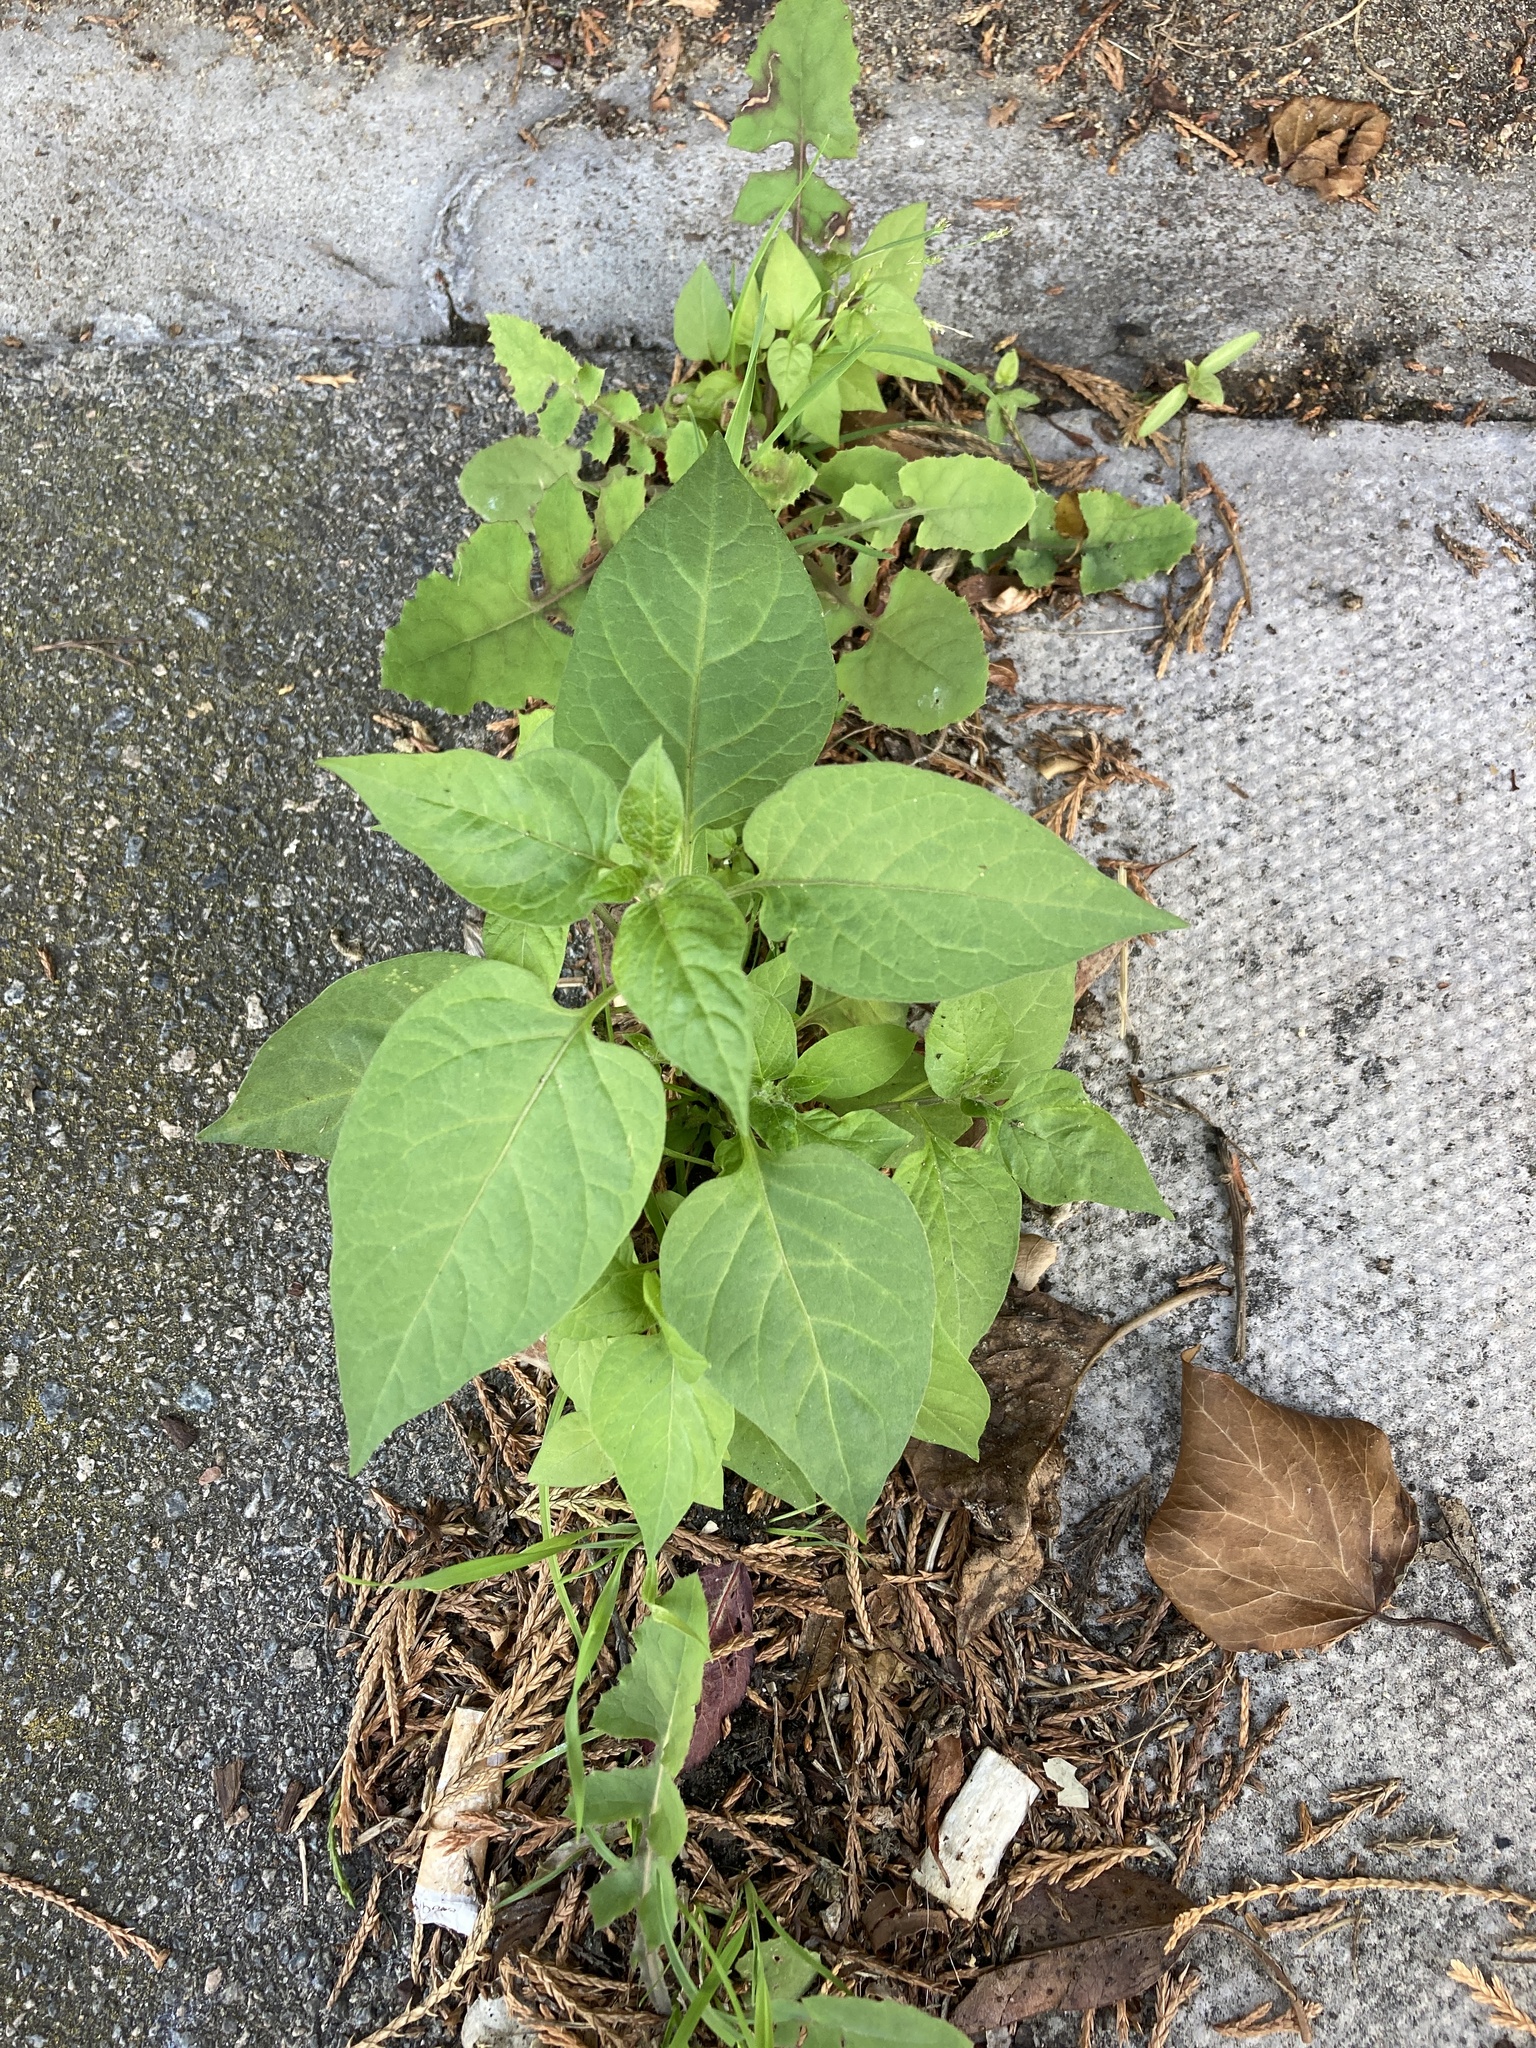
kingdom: Plantae
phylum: Tracheophyta
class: Magnoliopsida
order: Solanales
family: Solanaceae
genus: Solanum
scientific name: Solanum dulcamara
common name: Climbing nightshade
